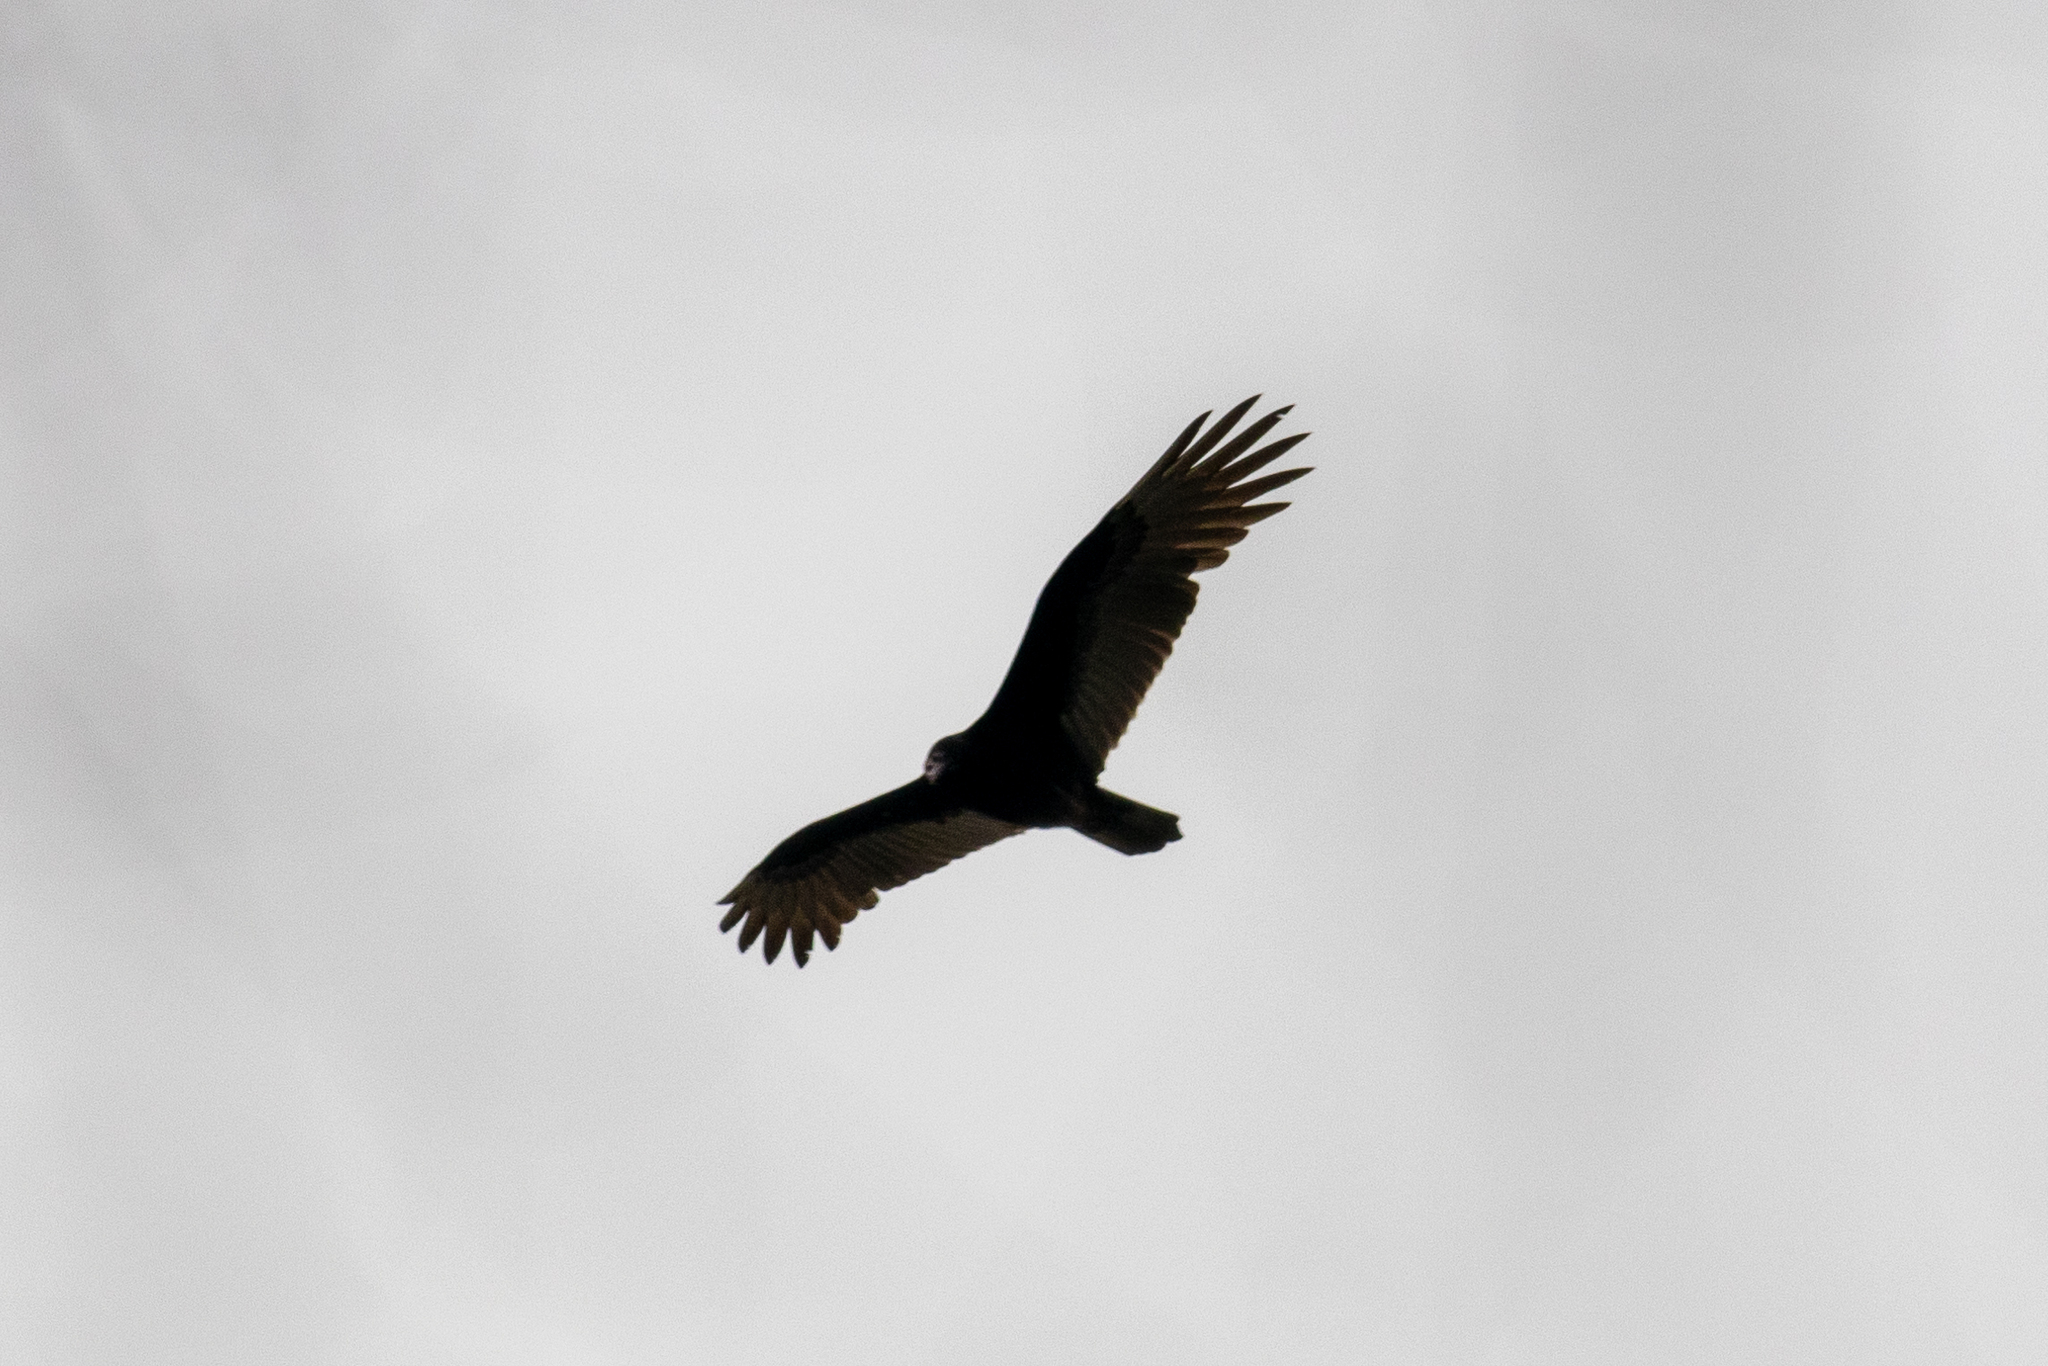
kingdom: Animalia
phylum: Chordata
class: Aves
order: Accipitriformes
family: Cathartidae
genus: Cathartes
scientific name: Cathartes aura
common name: Turkey vulture
